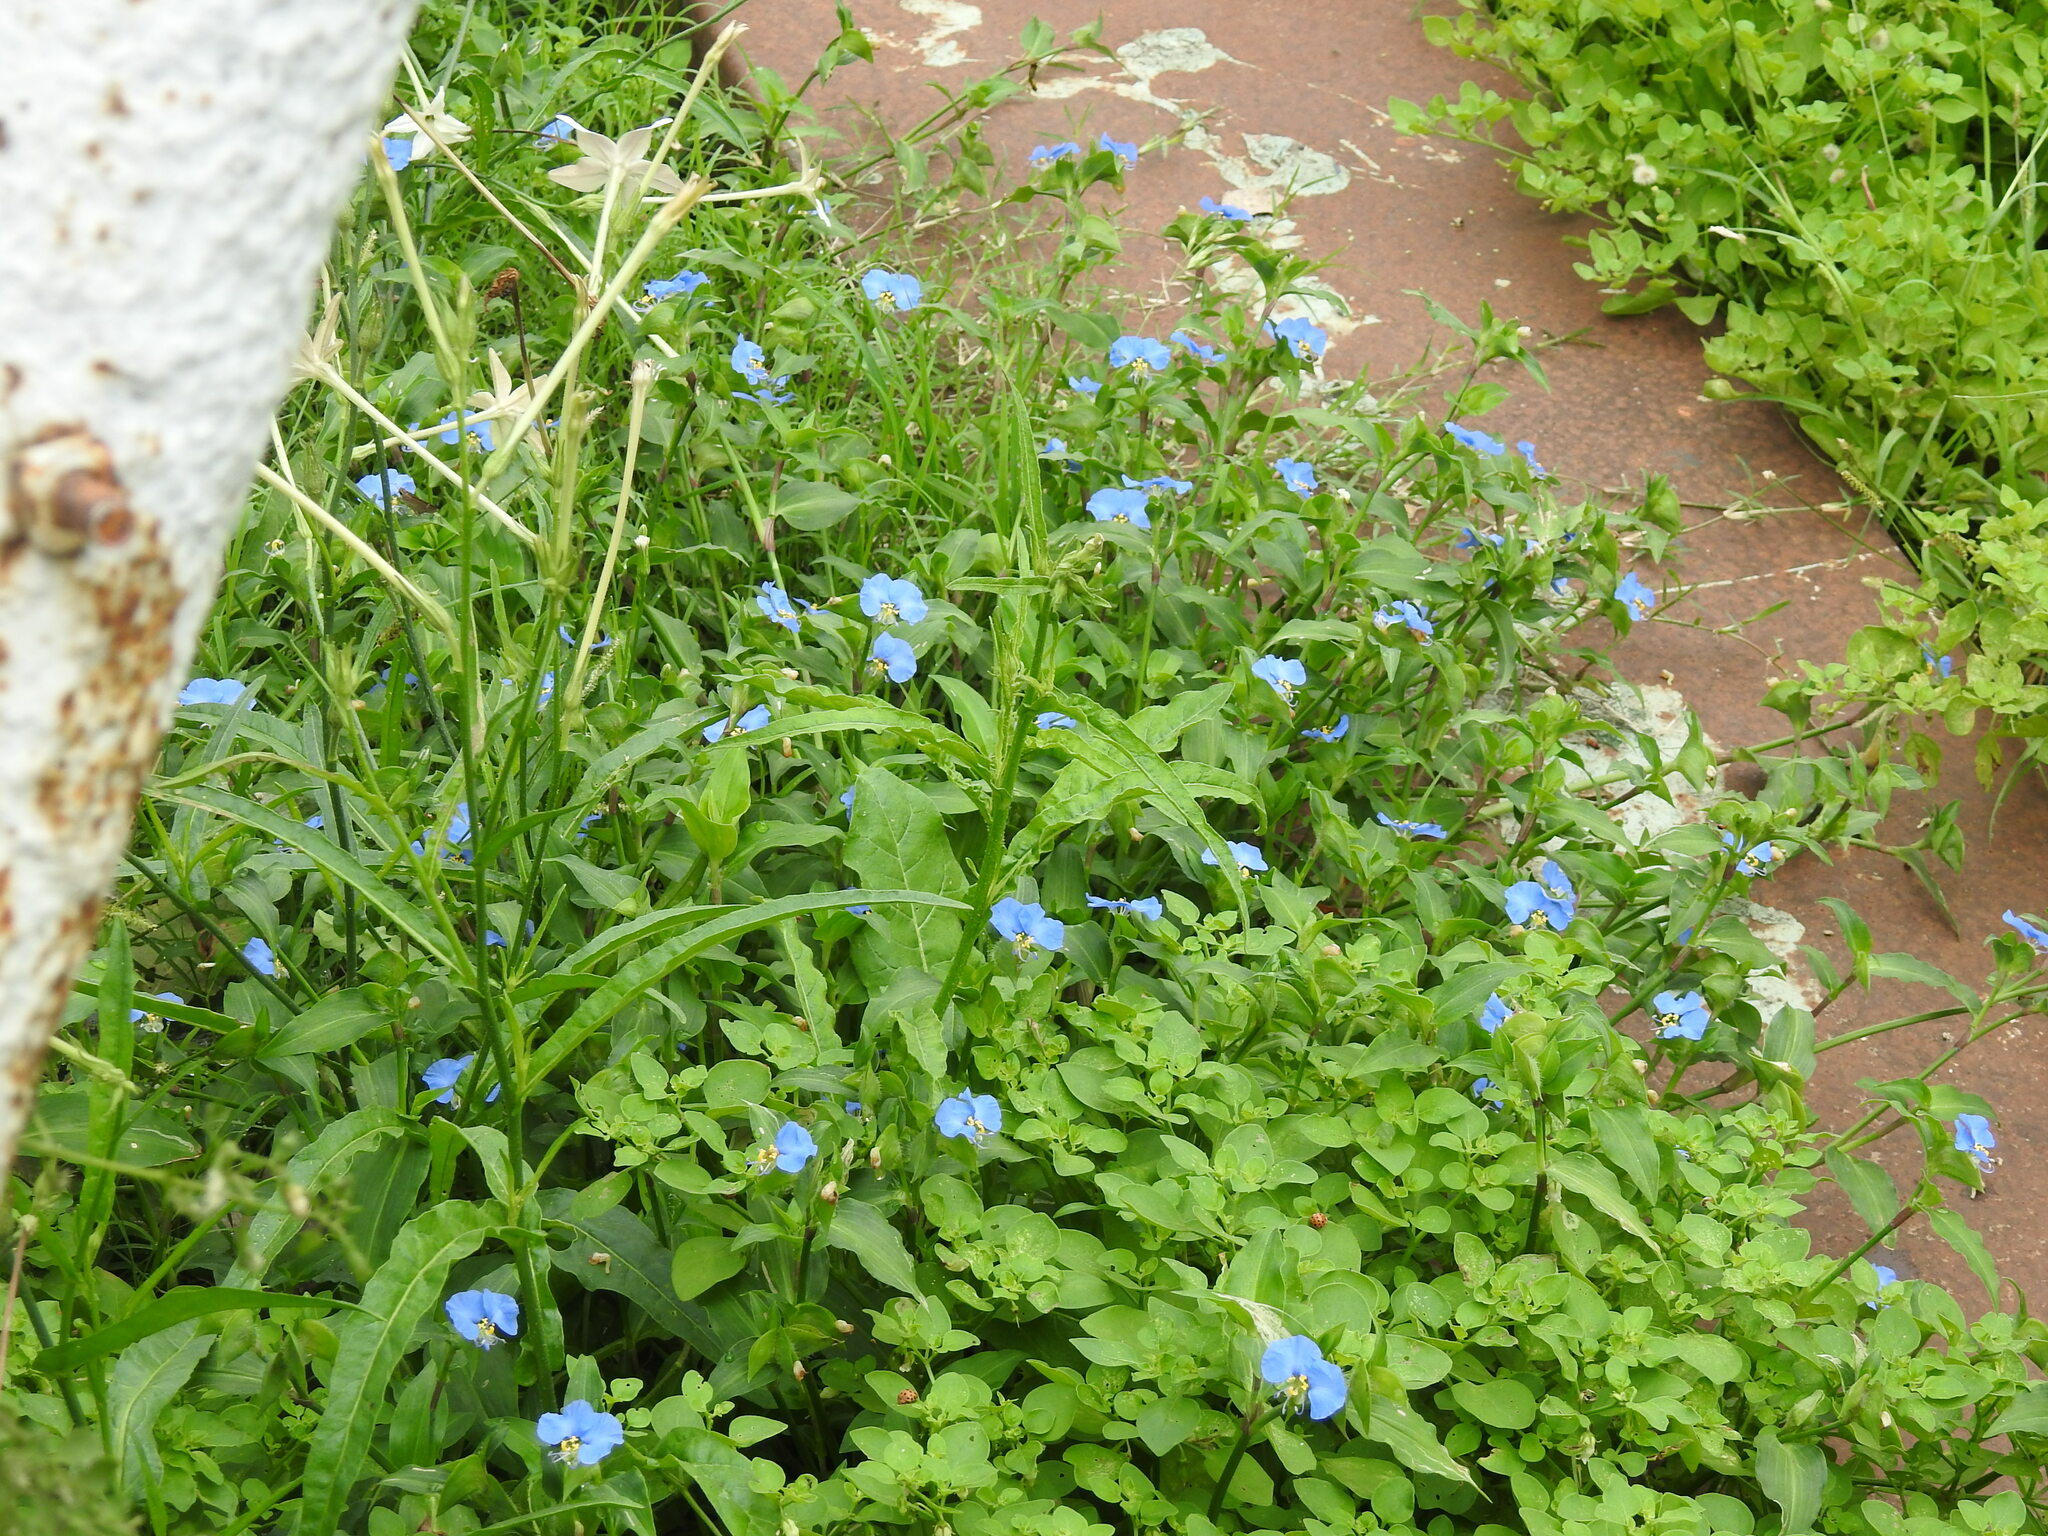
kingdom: Plantae
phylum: Tracheophyta
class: Liliopsida
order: Commelinales
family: Commelinaceae
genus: Commelina
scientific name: Commelina erecta
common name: Blousel blommetjie
